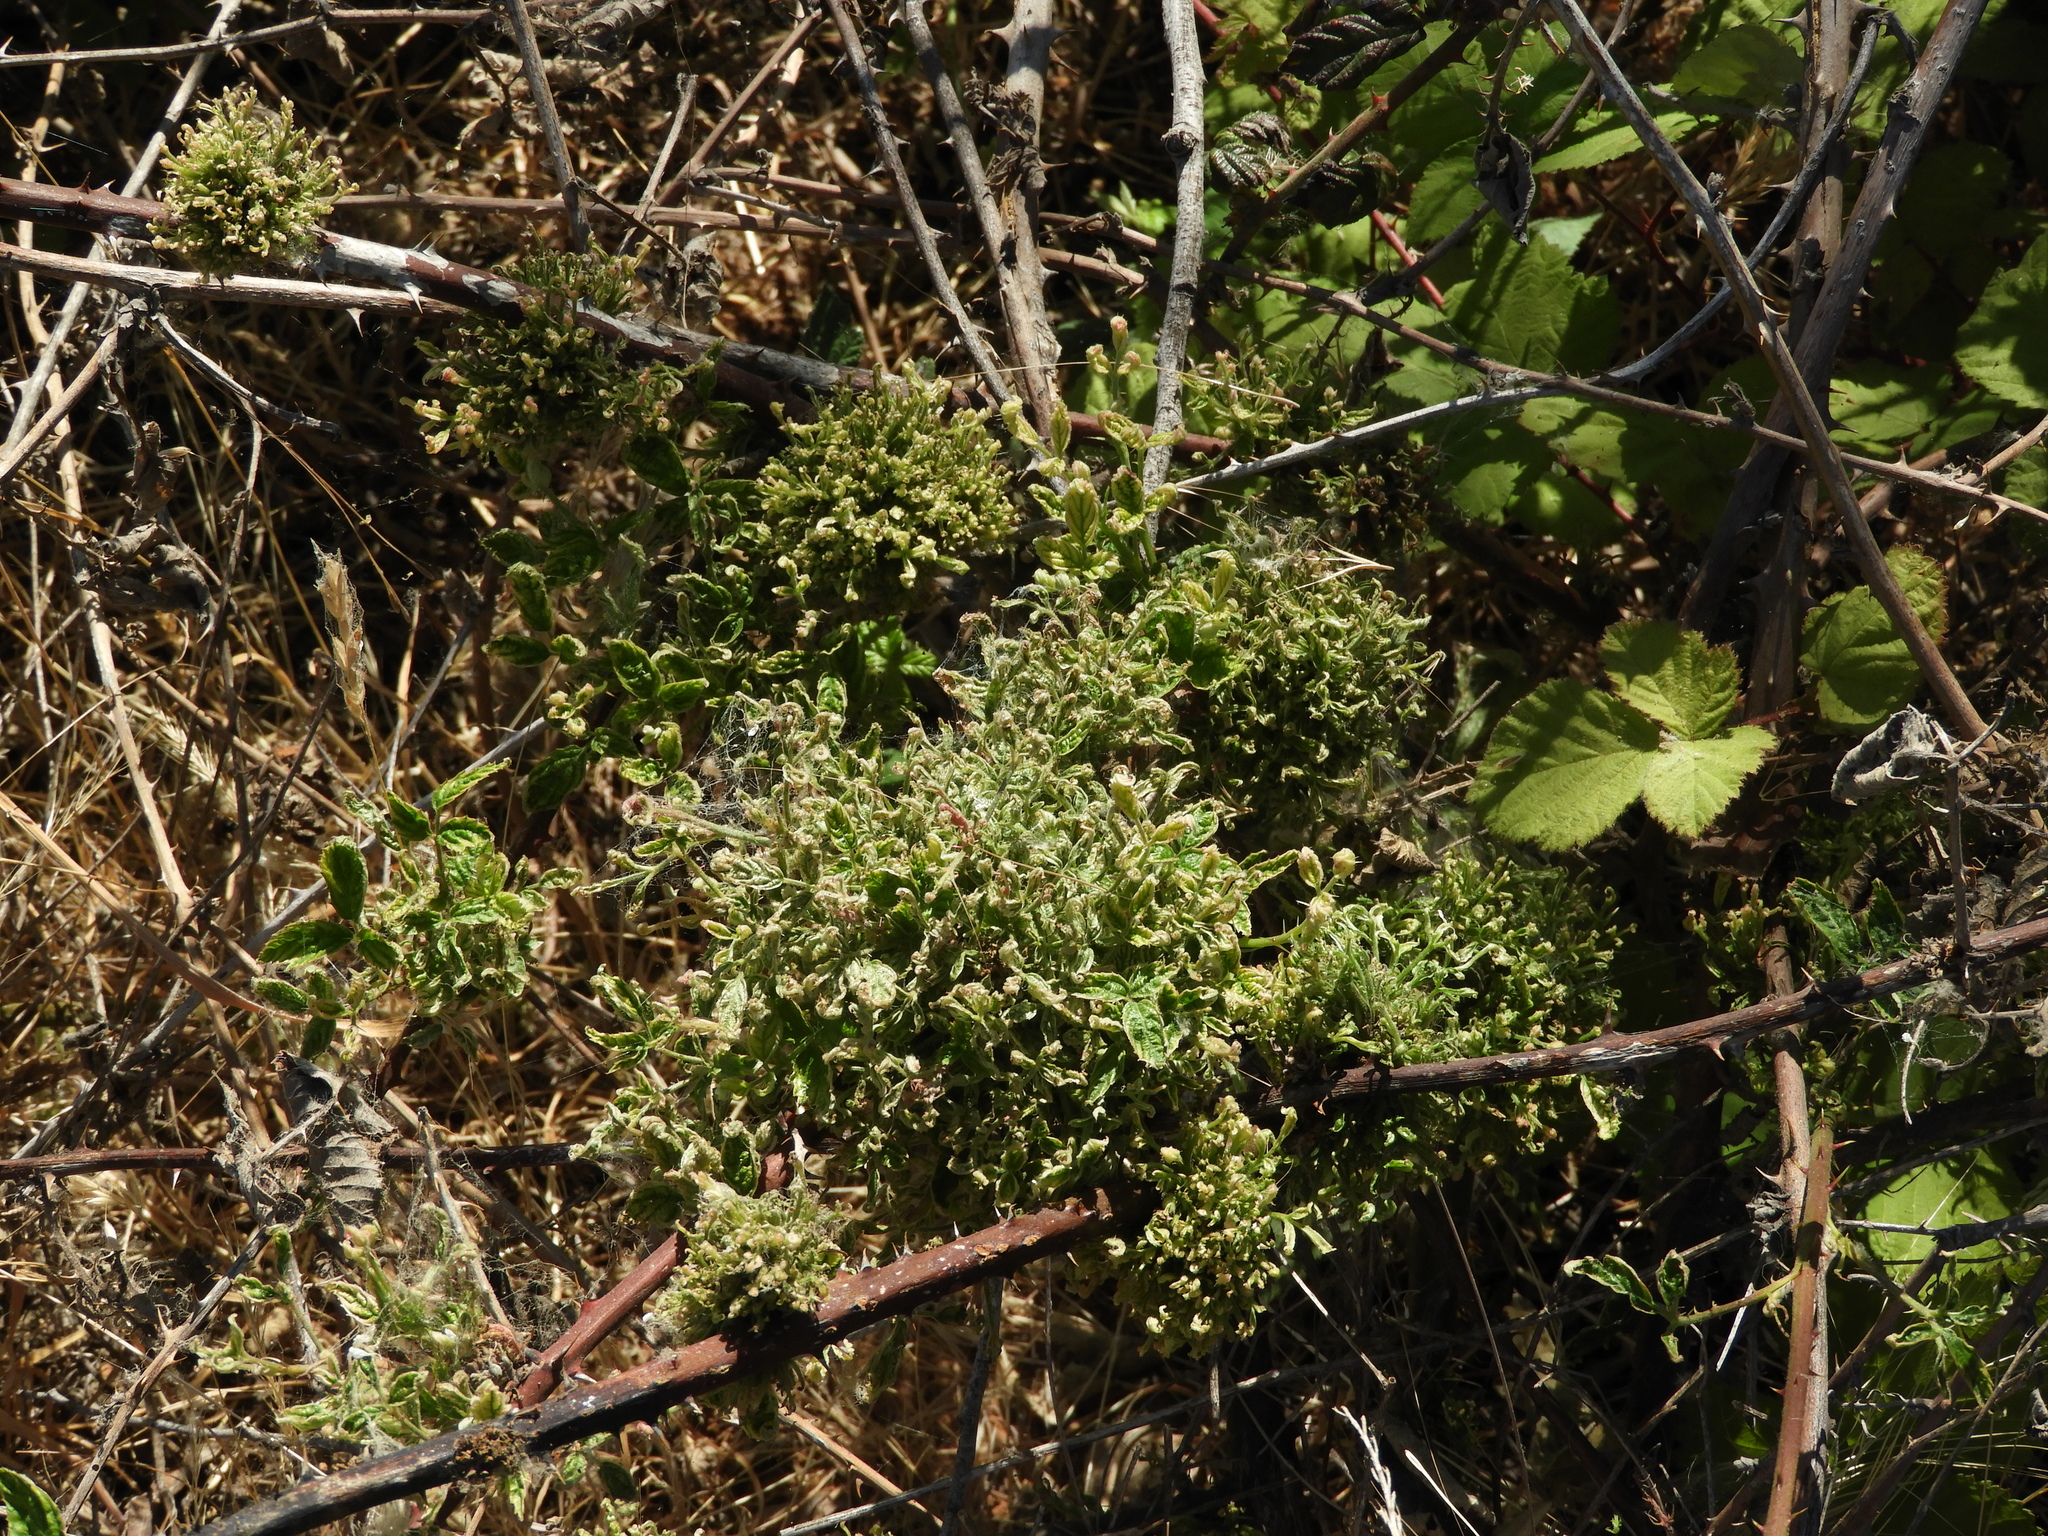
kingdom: Viruses
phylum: Negarnaviricota
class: Ellioviricetes
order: Bunyavirales
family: Fimoviridae
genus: Emaravirus
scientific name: Emaravirus rosae
